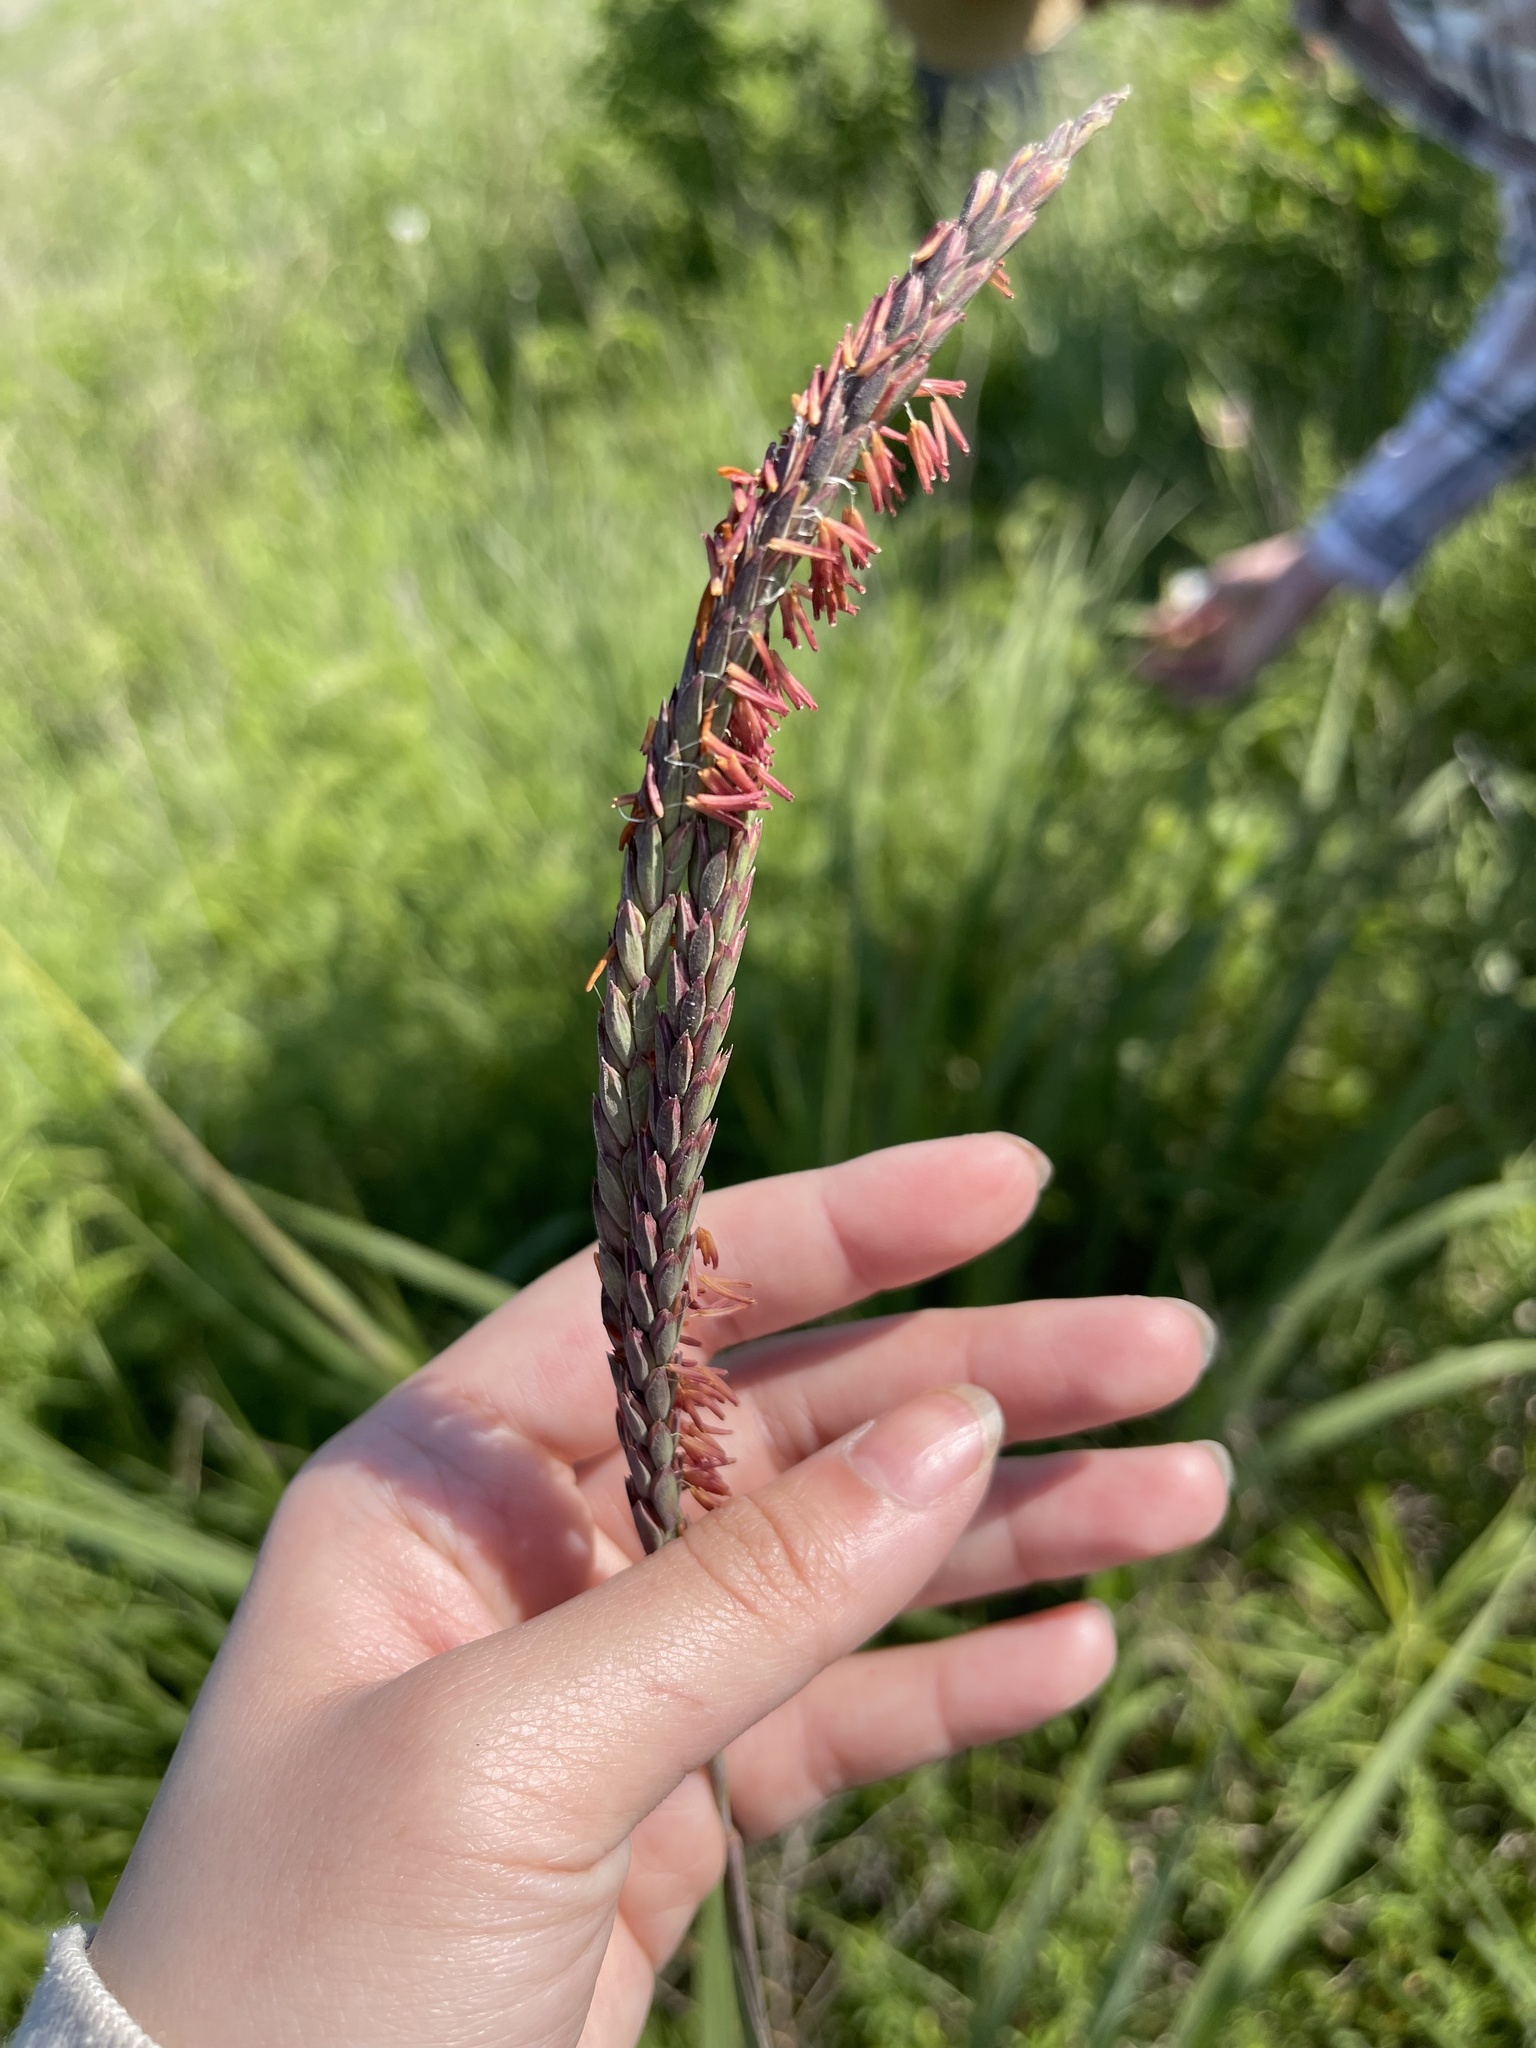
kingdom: Plantae
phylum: Tracheophyta
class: Liliopsida
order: Poales
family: Poaceae
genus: Tripsacum
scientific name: Tripsacum dactyloides
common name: Buffalo-grass
